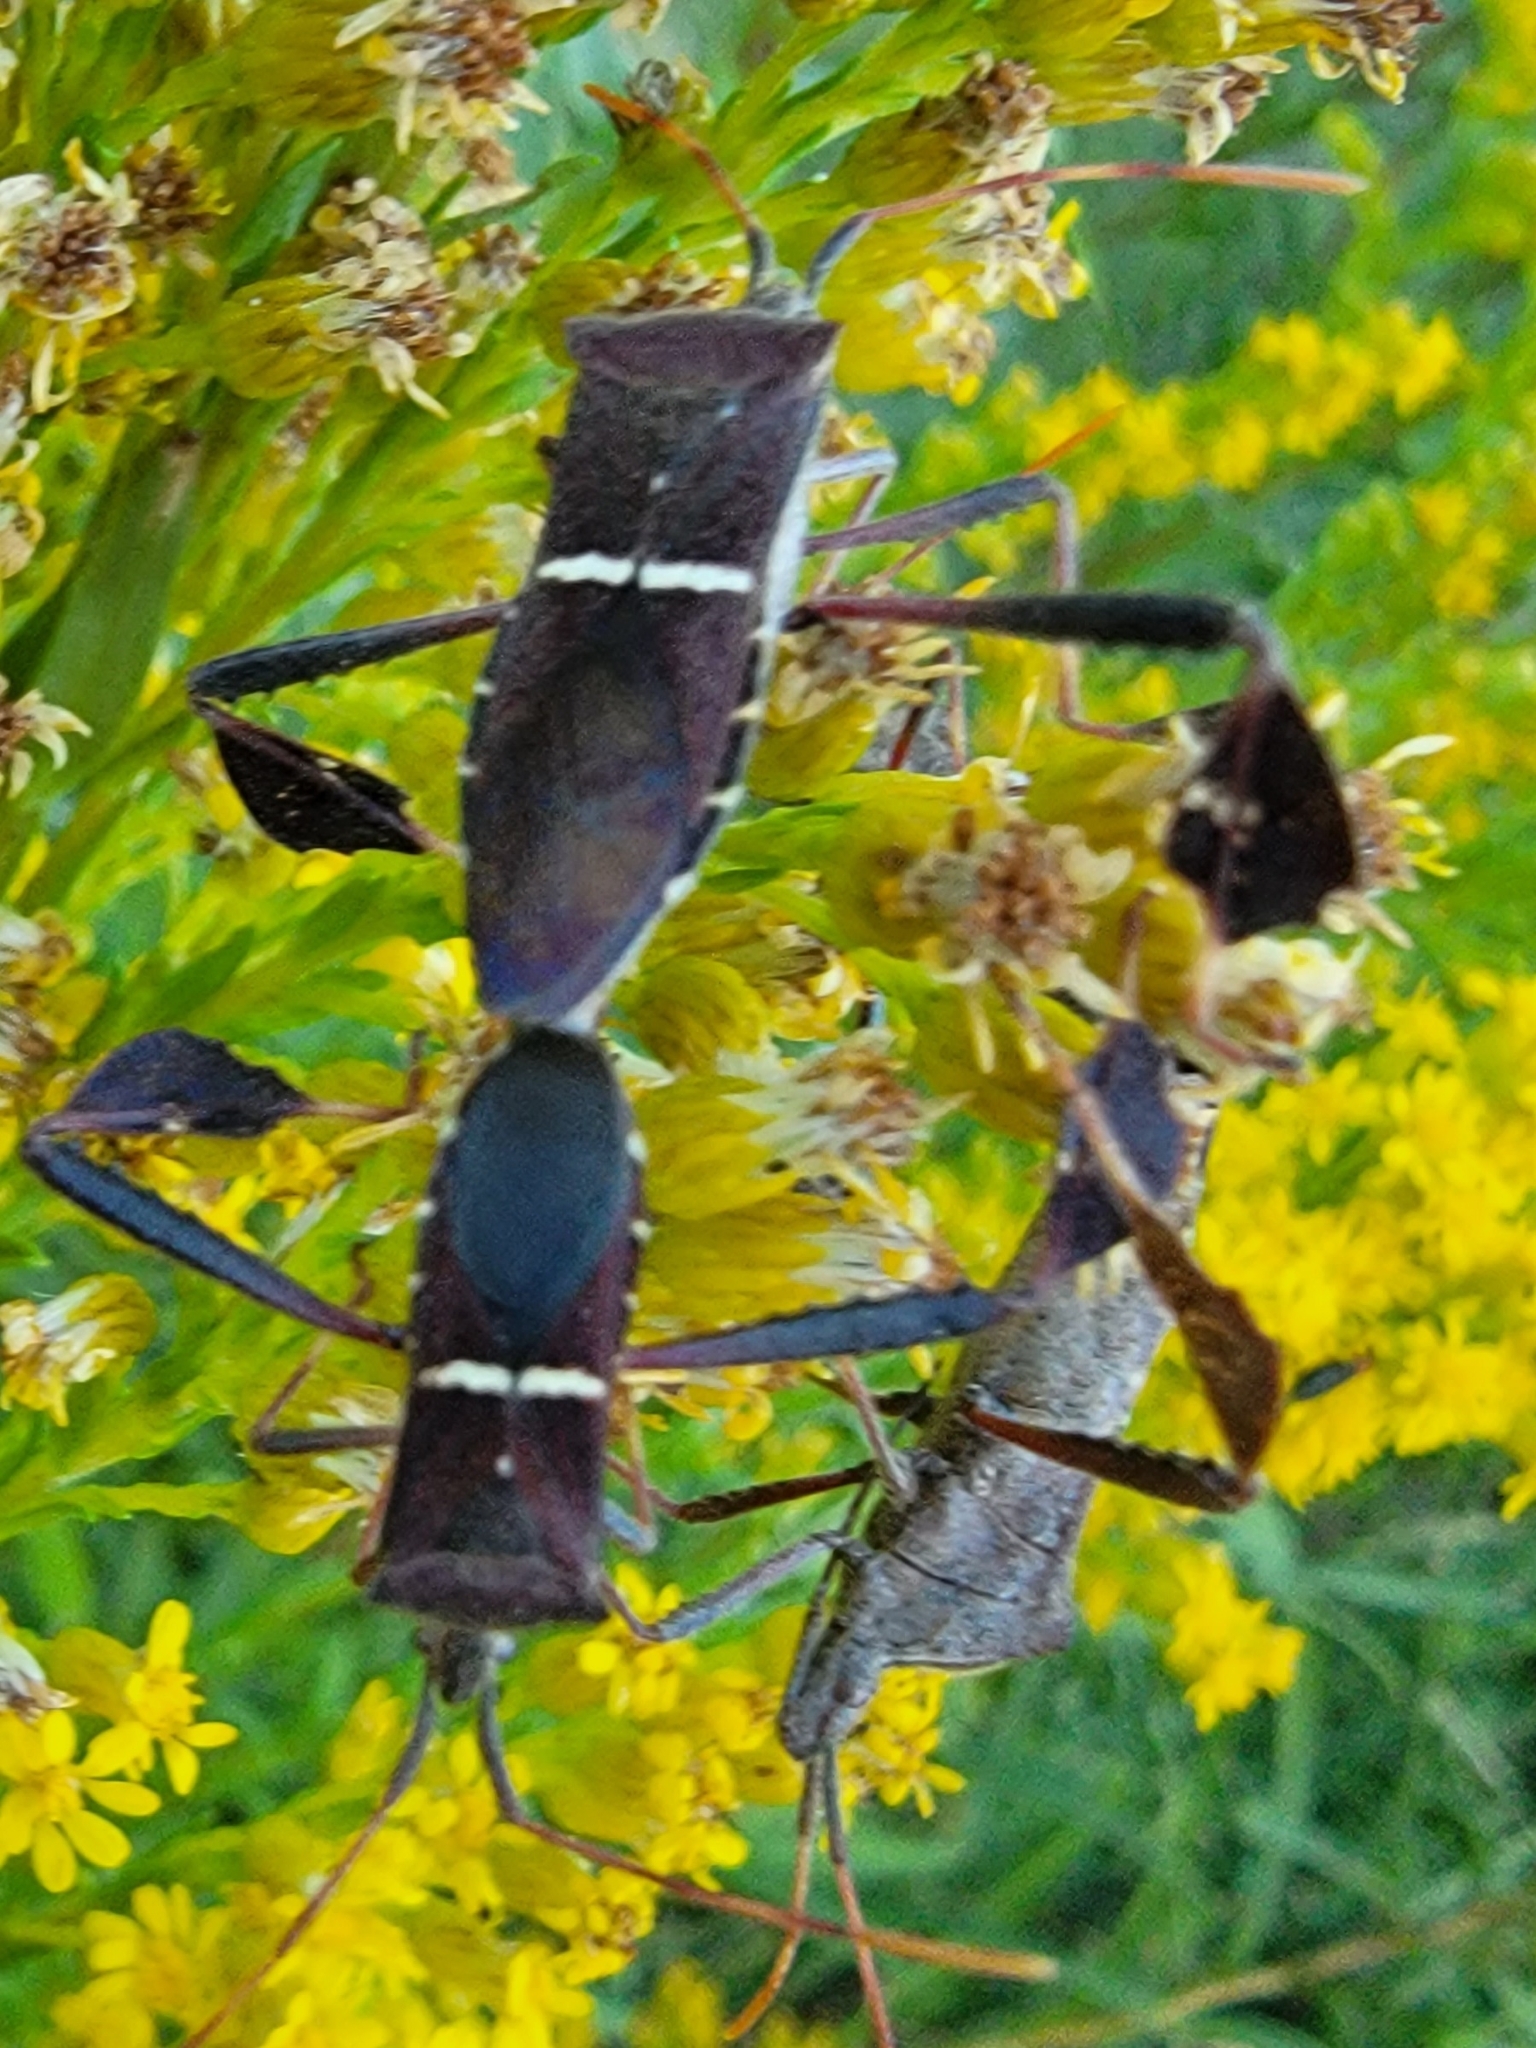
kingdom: Animalia
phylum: Arthropoda
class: Insecta
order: Hemiptera
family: Coreidae
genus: Leptoglossus
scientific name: Leptoglossus phyllopus
